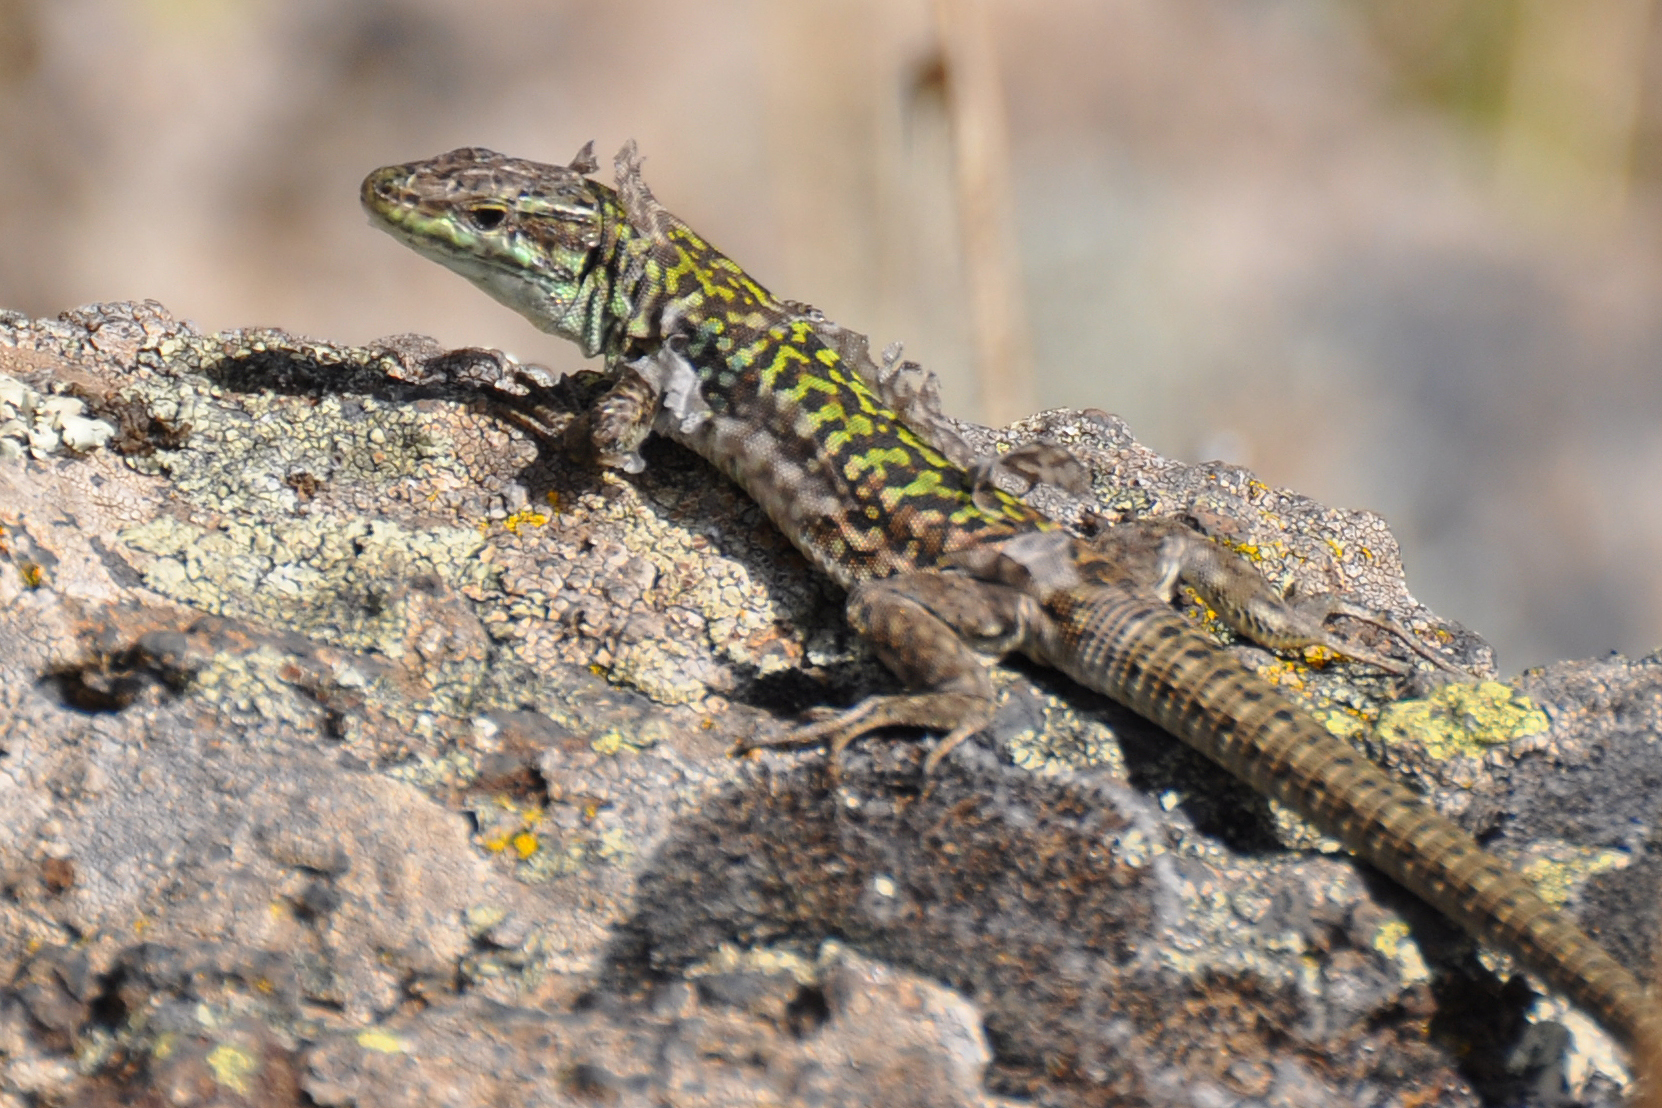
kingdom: Animalia
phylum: Chordata
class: Squamata
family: Lacertidae
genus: Podarcis
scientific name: Podarcis siculus
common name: Italian wall lizard
